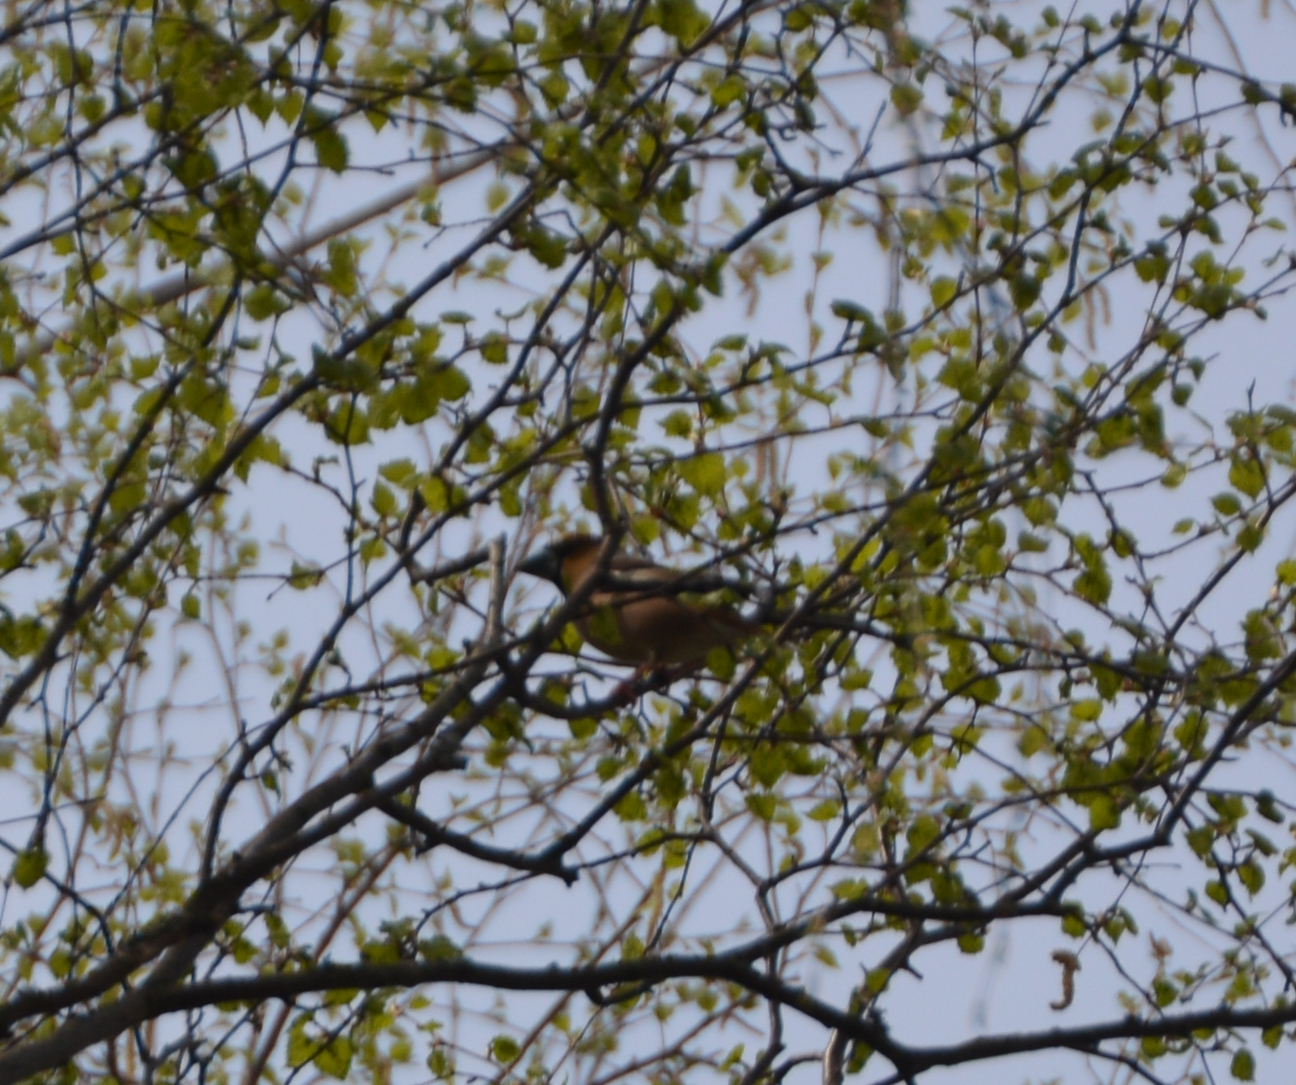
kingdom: Animalia
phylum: Chordata
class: Aves
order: Passeriformes
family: Fringillidae
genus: Coccothraustes
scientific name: Coccothraustes coccothraustes
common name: Hawfinch
